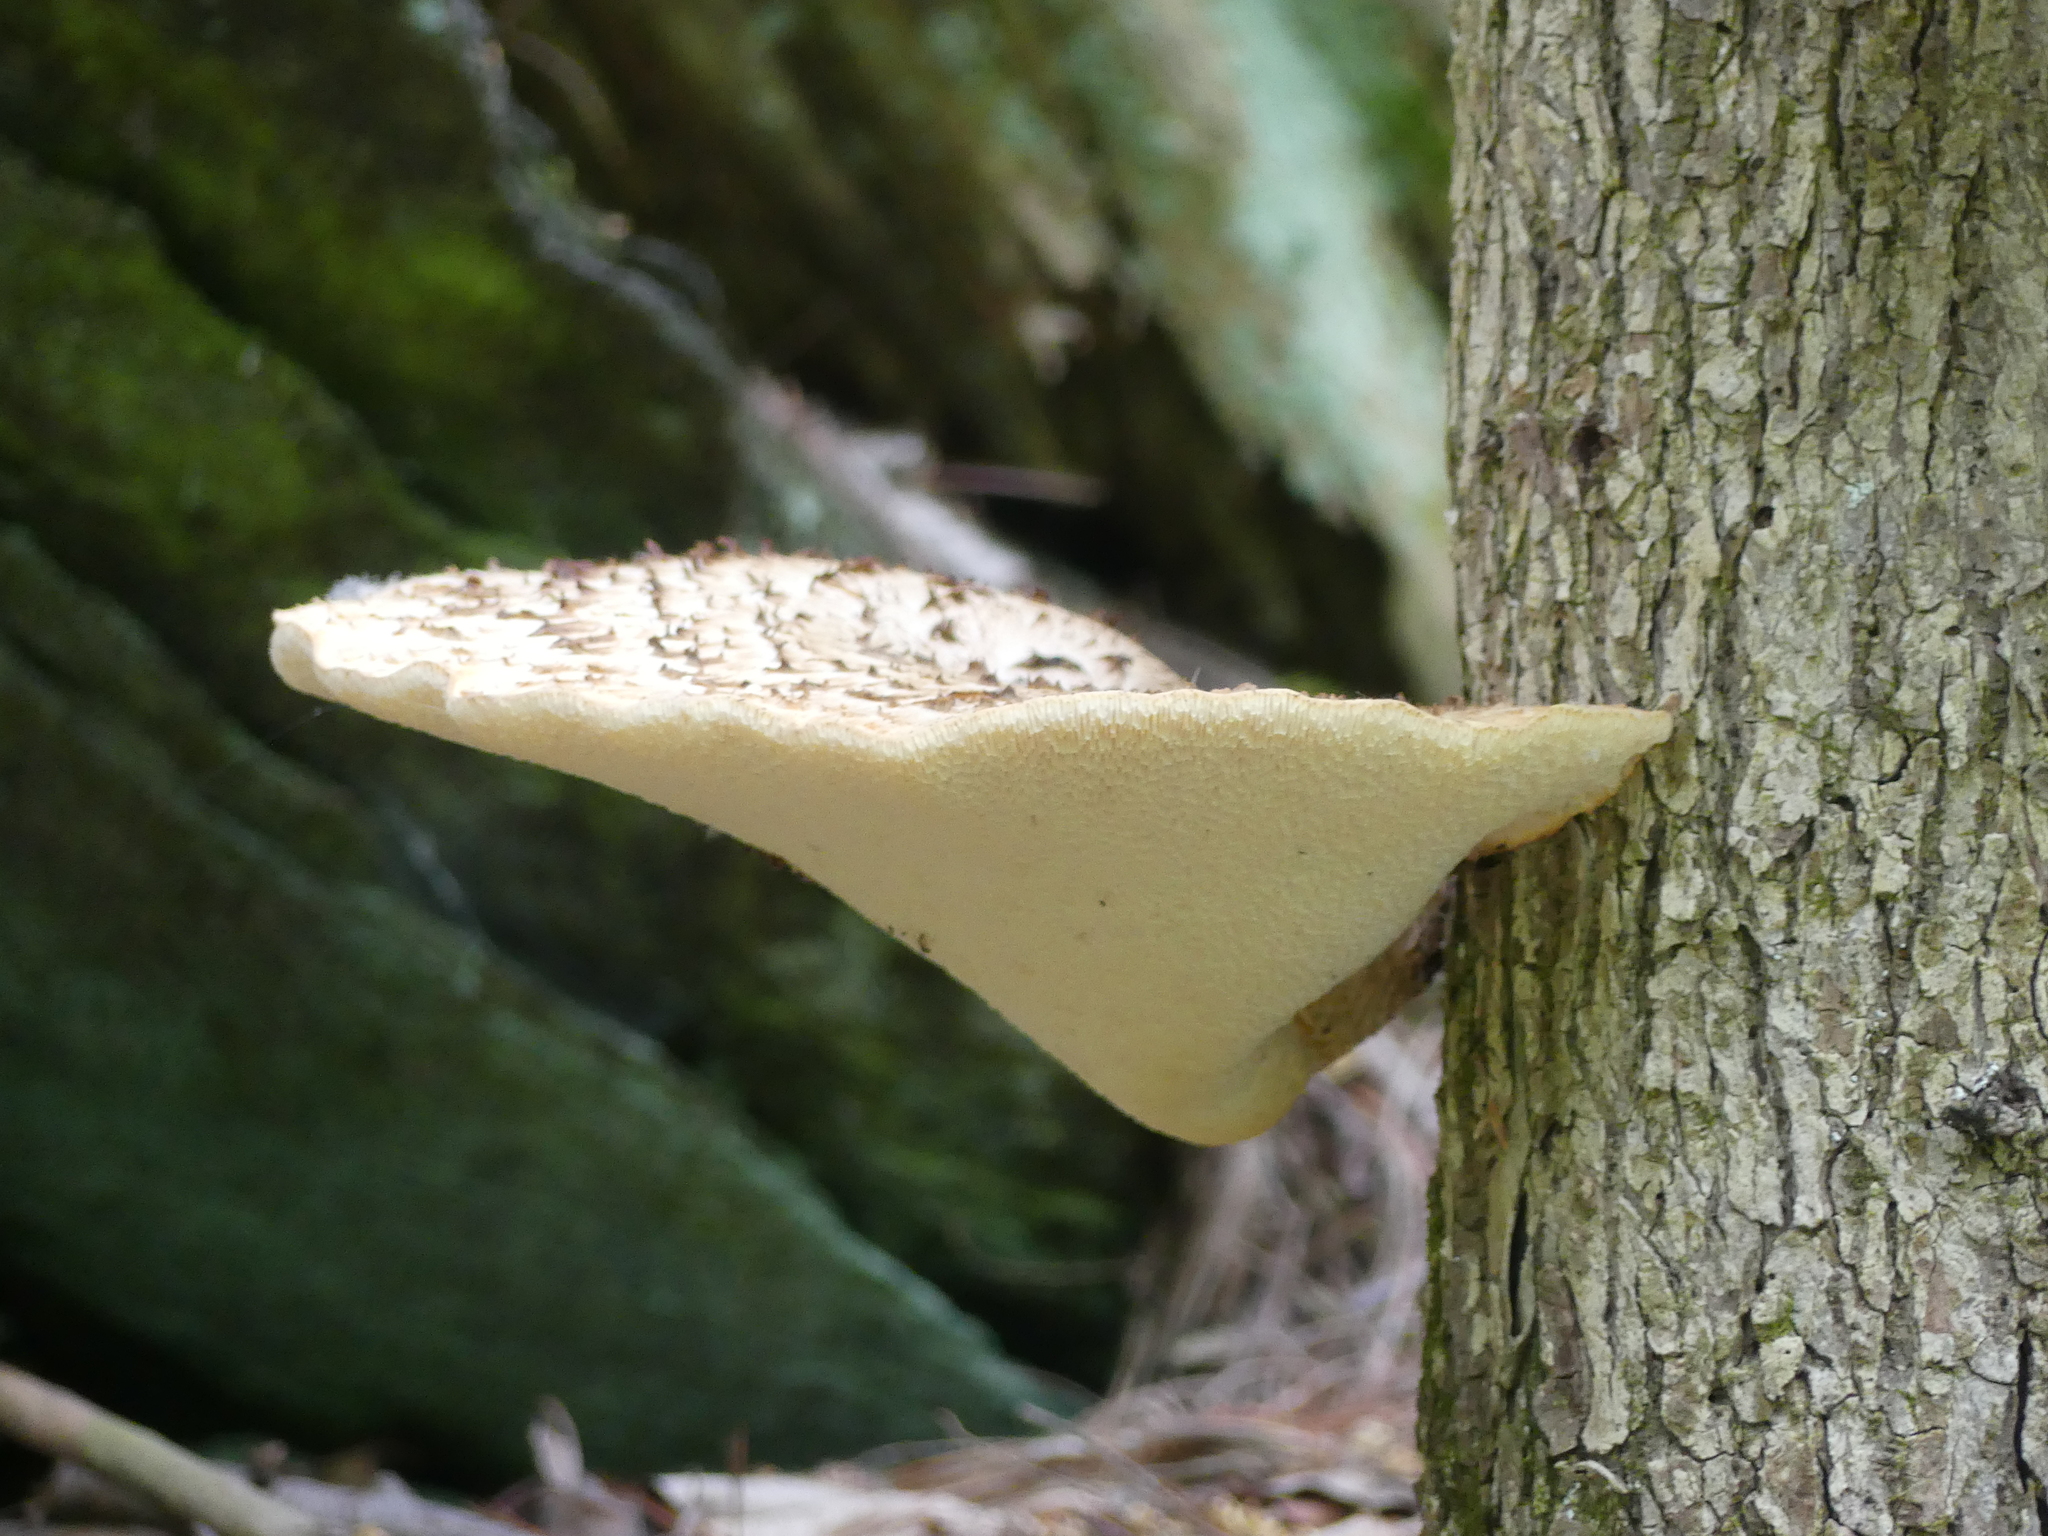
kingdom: Fungi
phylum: Basidiomycota
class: Agaricomycetes
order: Polyporales
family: Polyporaceae
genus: Cerioporus
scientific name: Cerioporus squamosus
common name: Dryad's saddle
